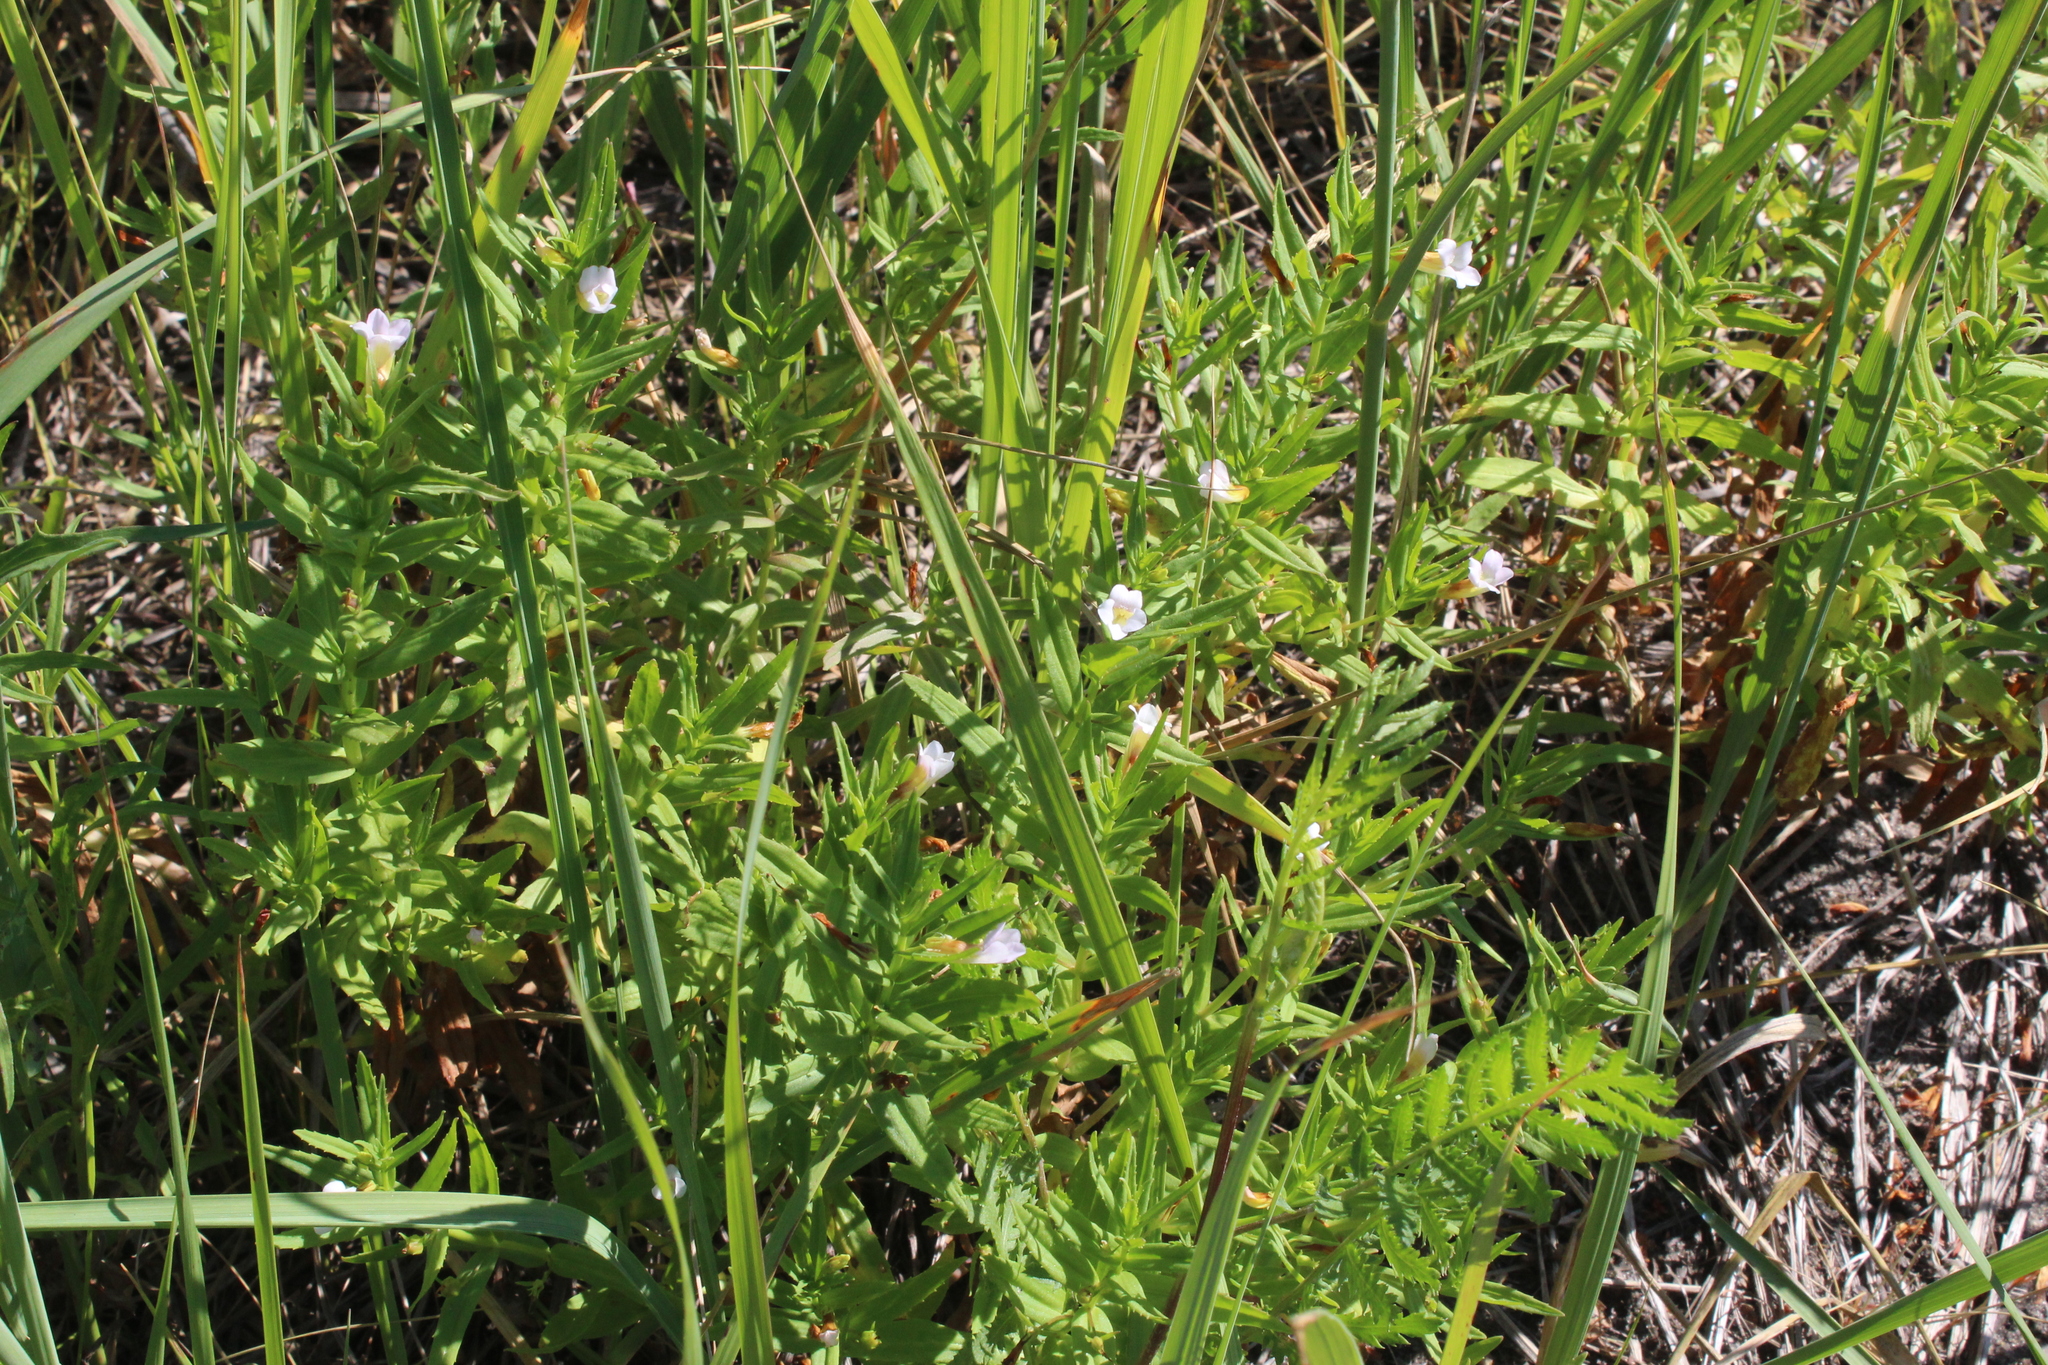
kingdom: Plantae
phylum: Tracheophyta
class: Magnoliopsida
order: Lamiales
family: Plantaginaceae
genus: Gratiola
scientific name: Gratiola officinalis
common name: Gratiola
